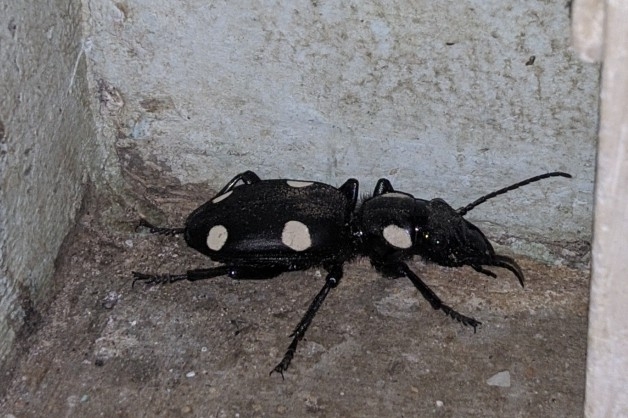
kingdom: Animalia
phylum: Arthropoda
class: Insecta
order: Coleoptera
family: Carabidae
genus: Anthia
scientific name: Anthia sexguttata
